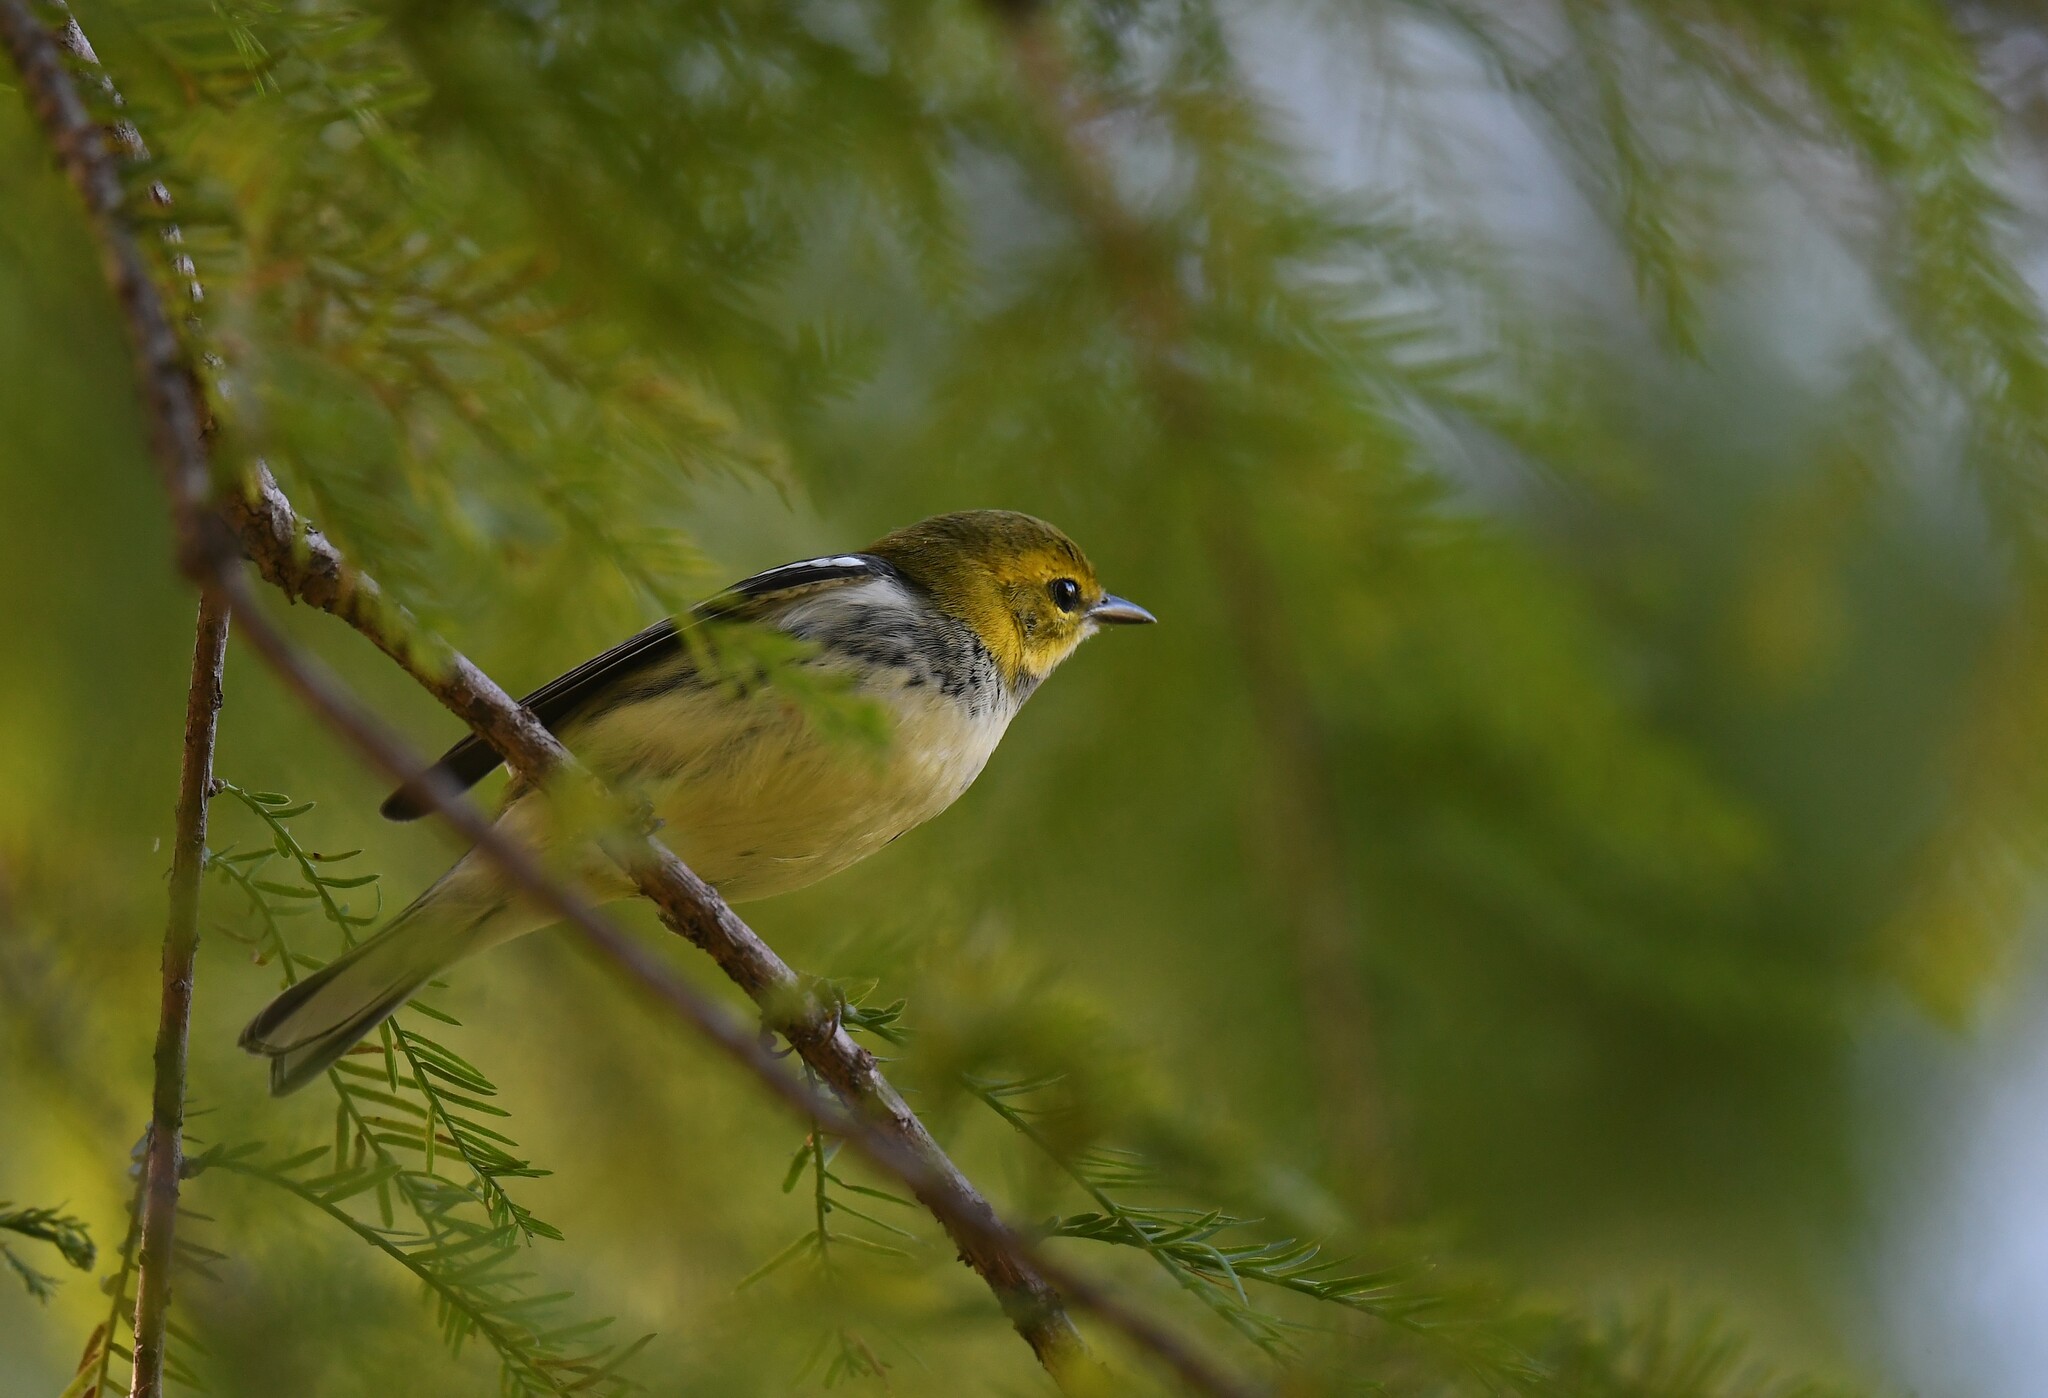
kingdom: Animalia
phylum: Chordata
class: Aves
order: Passeriformes
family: Parulidae
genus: Setophaga
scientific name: Setophaga virens
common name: Black-throated green warbler
